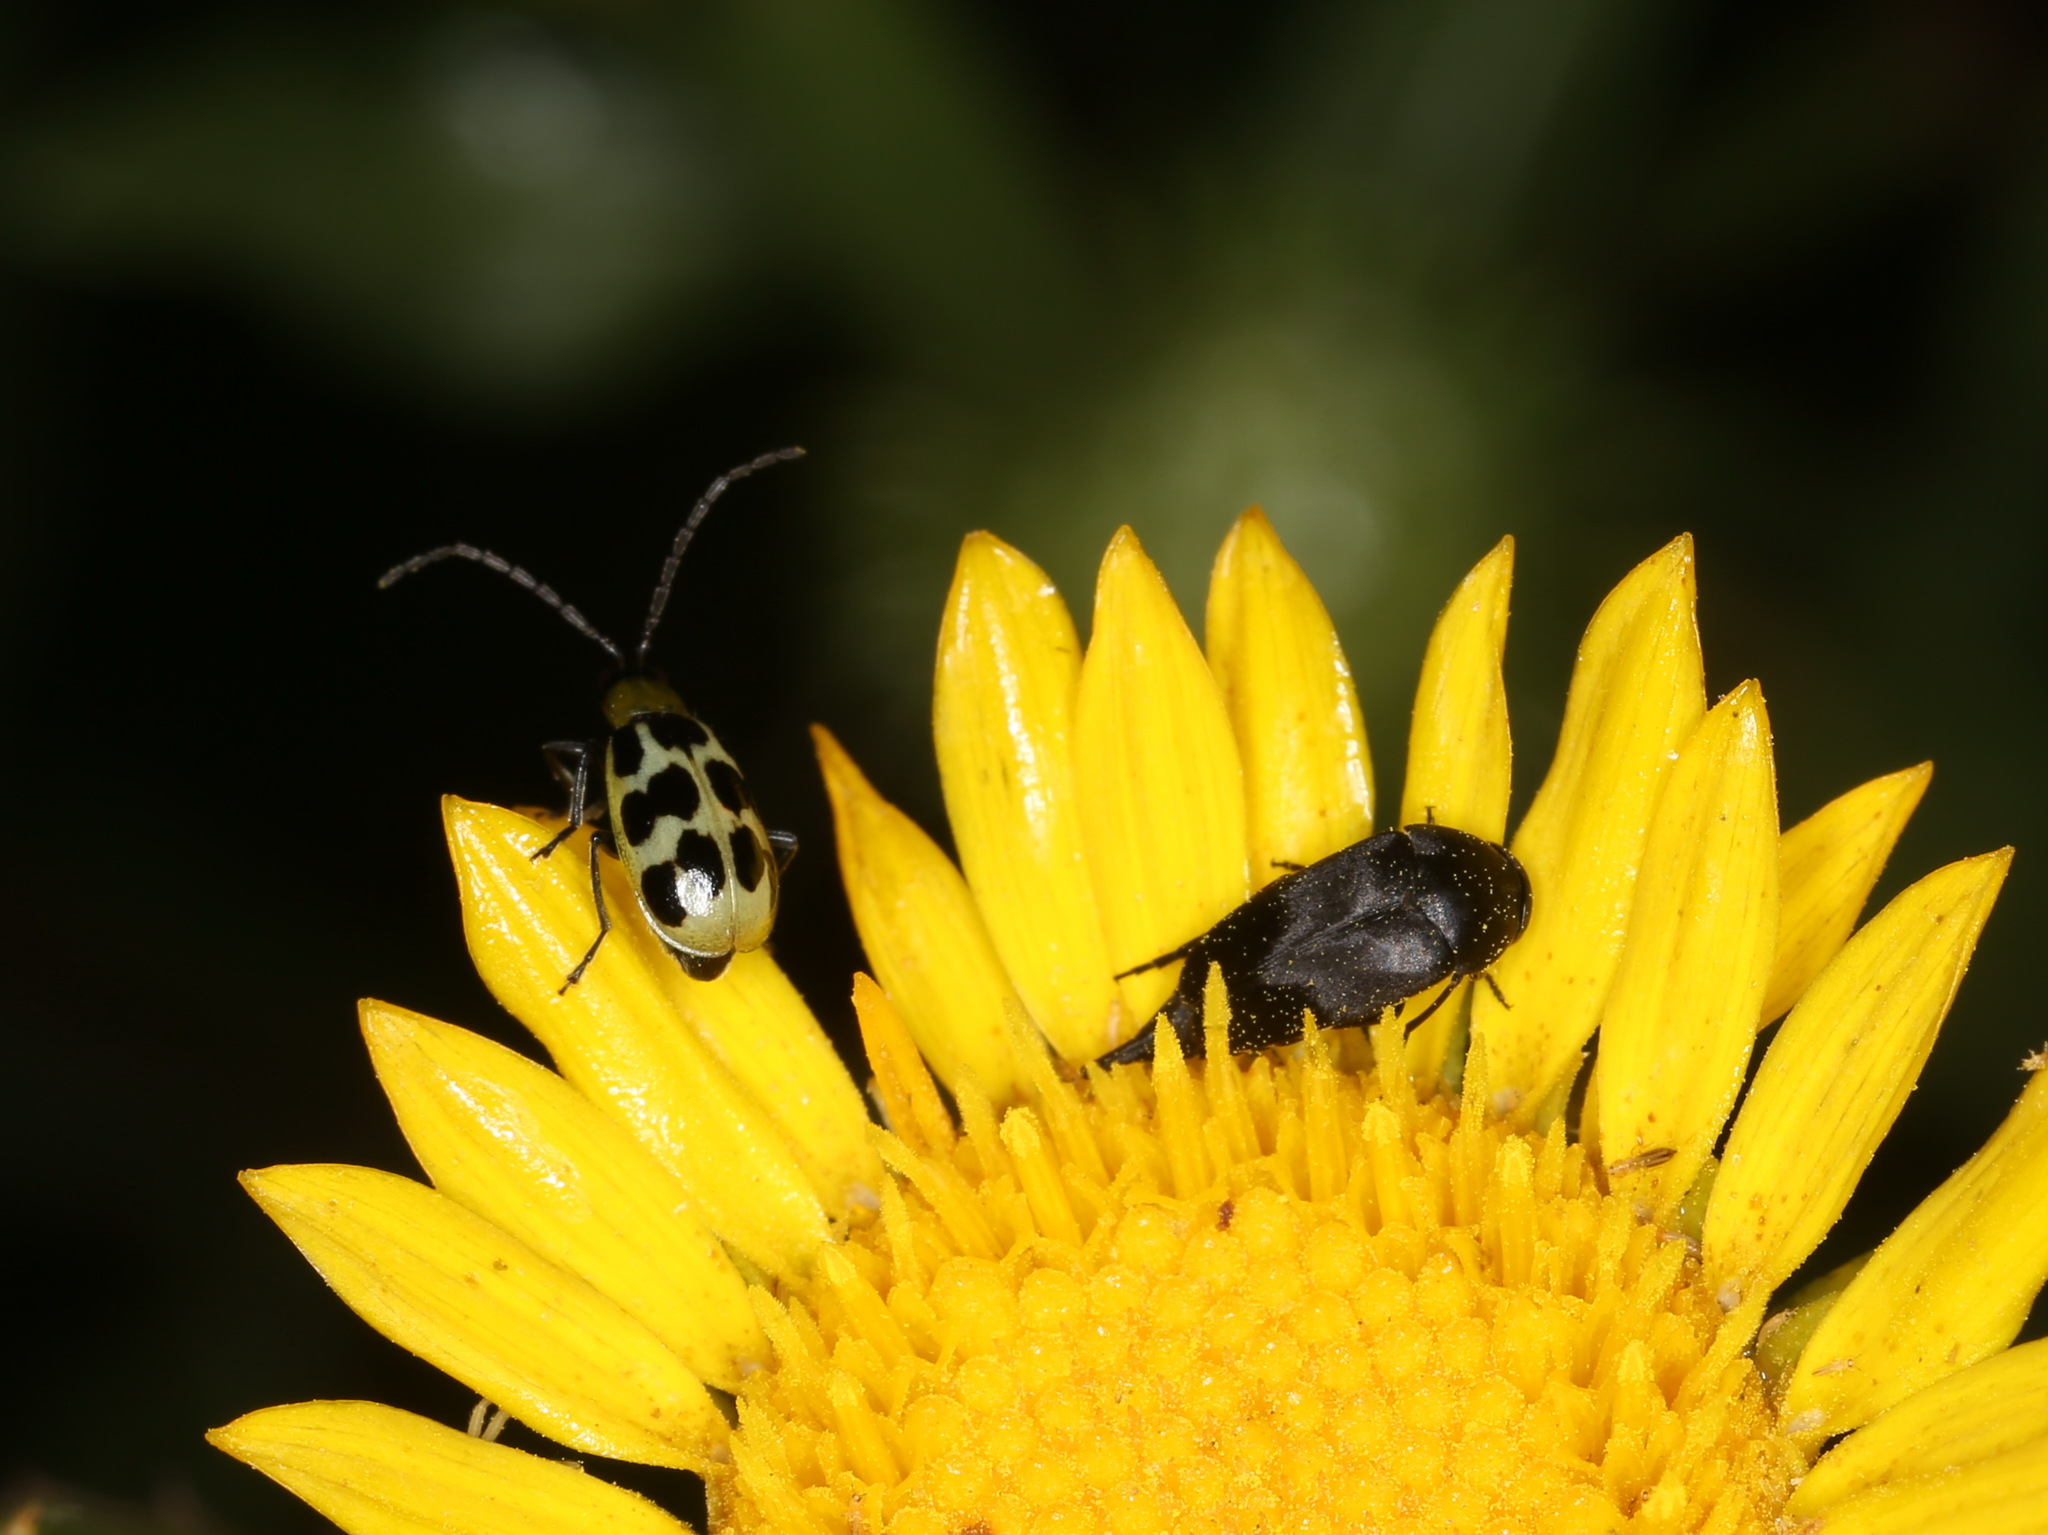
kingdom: Animalia
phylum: Arthropoda
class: Insecta
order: Coleoptera
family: Chrysomelidae
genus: Diabrotica
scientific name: Diabrotica undecimpunctata
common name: Spotted cucumber beetle
